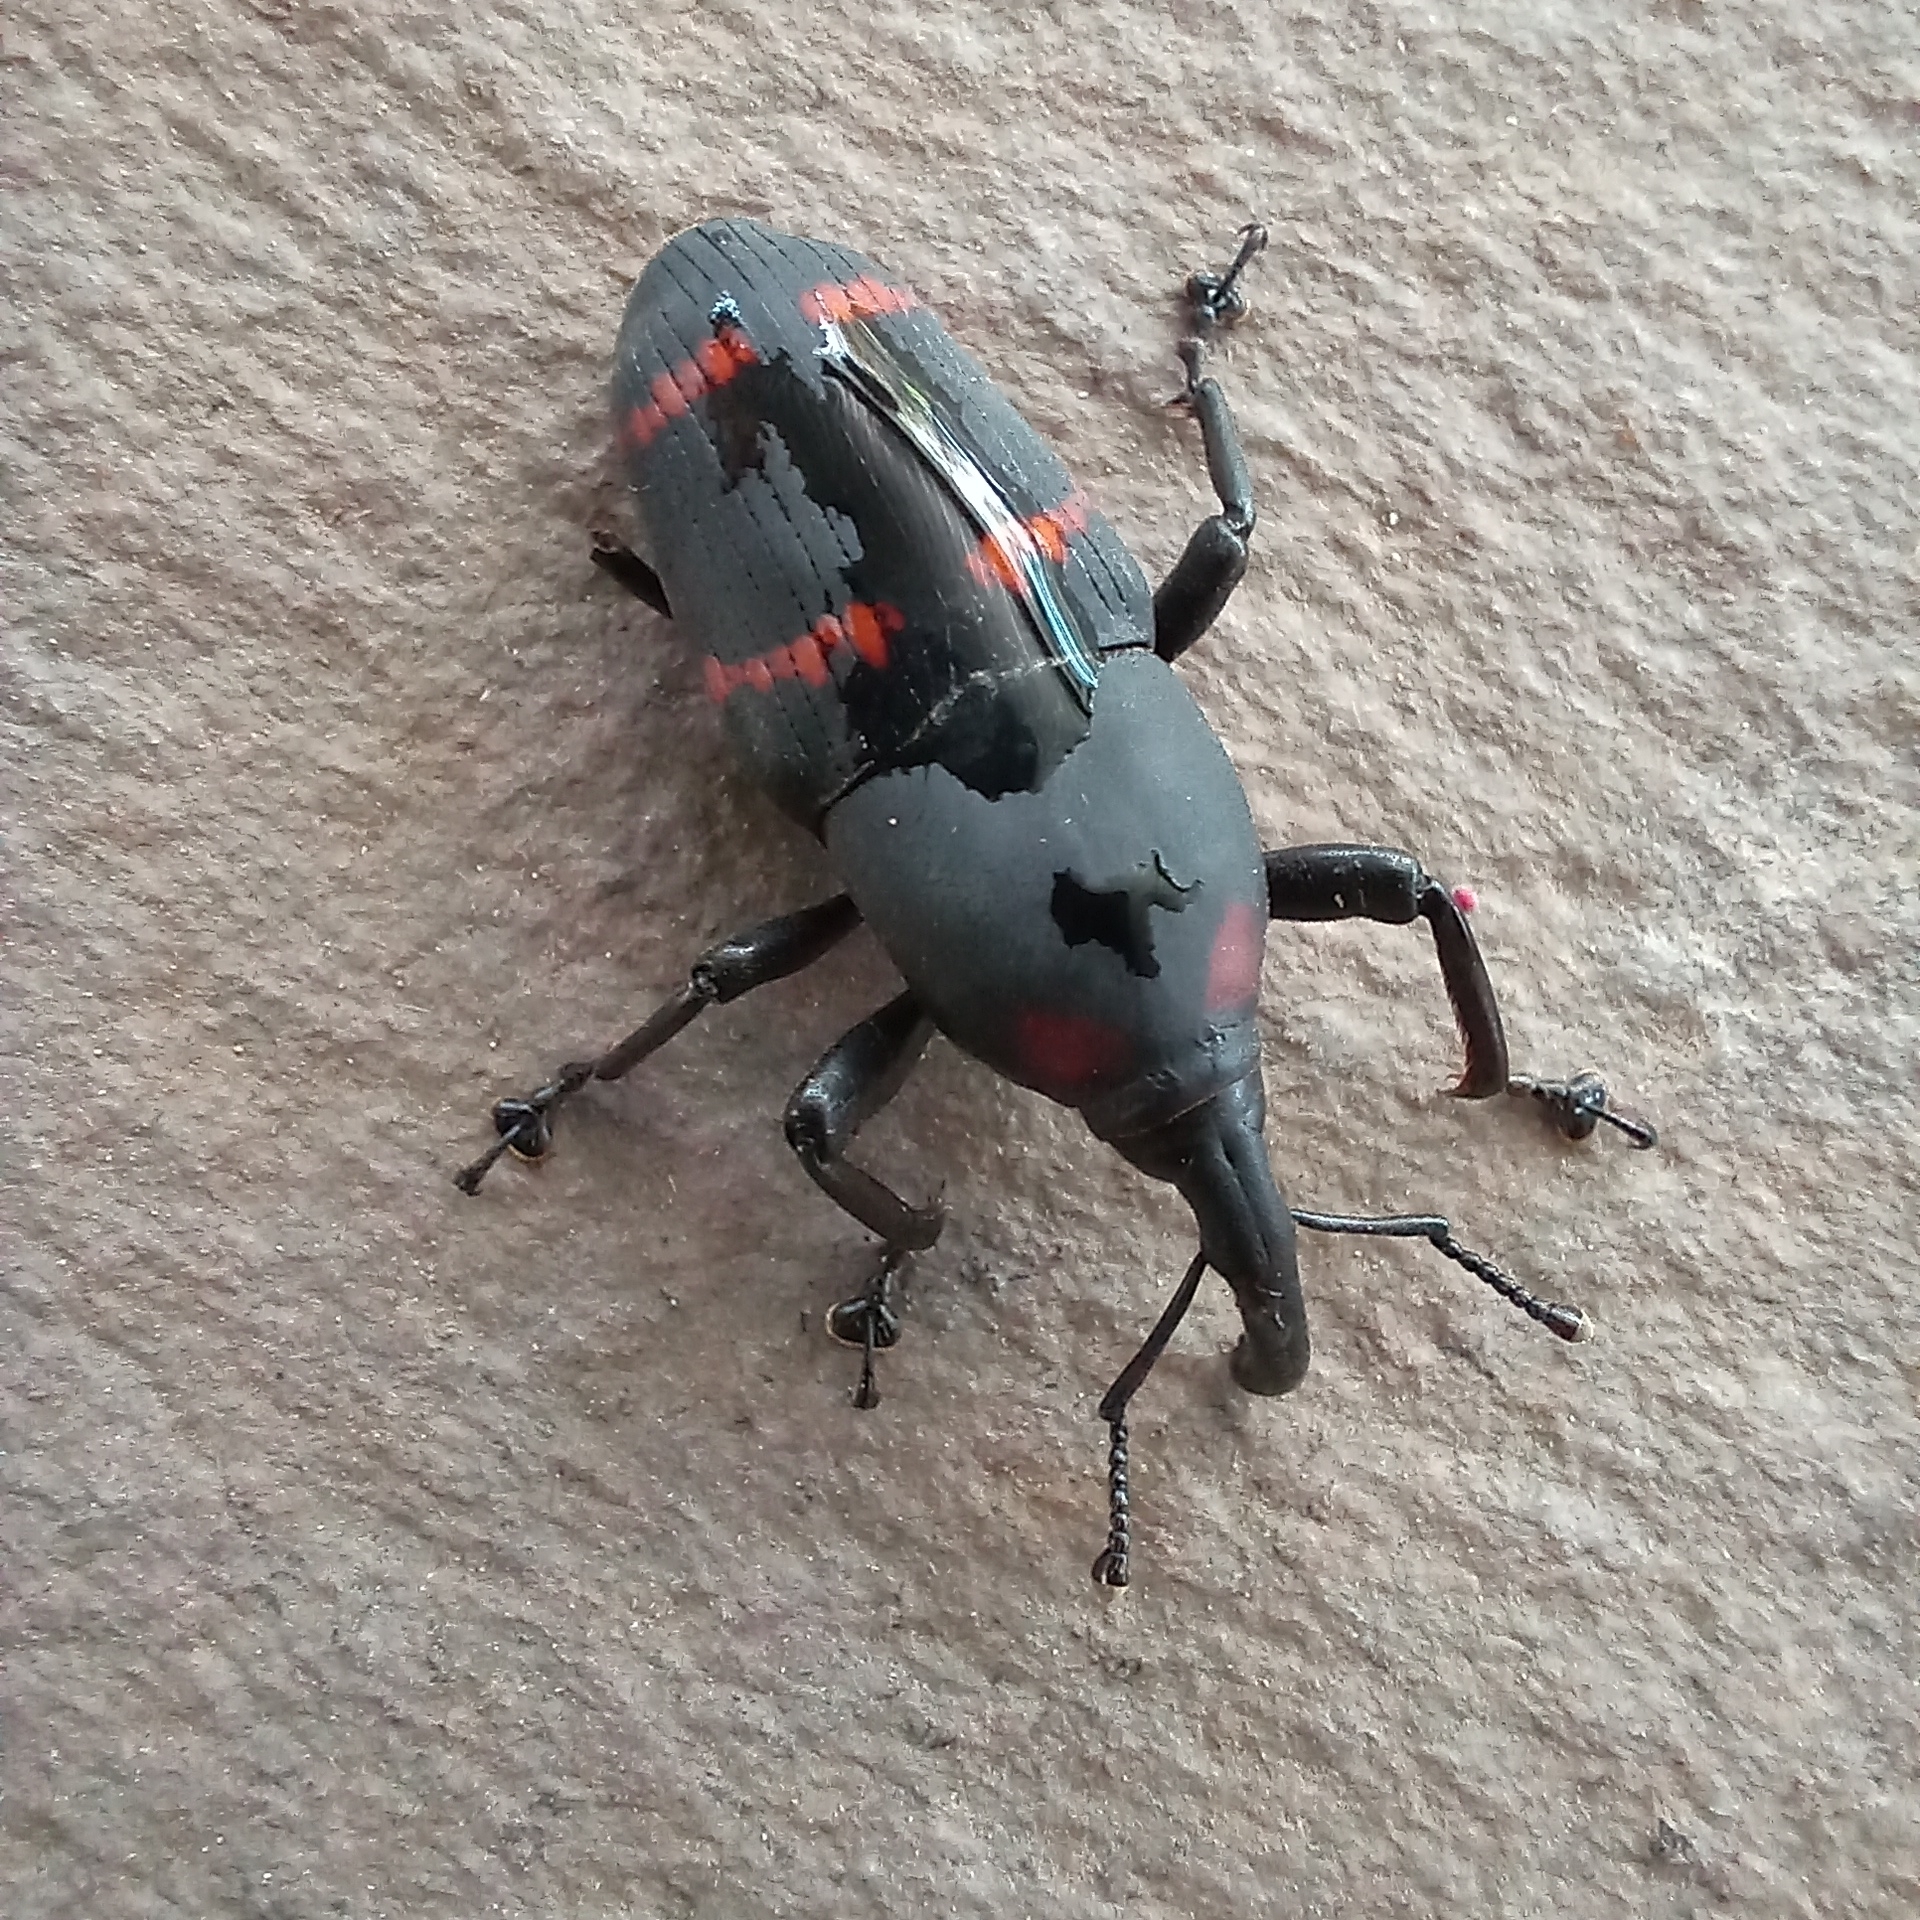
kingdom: Animalia
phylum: Arthropoda
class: Insecta
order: Coleoptera
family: Dryophthoridae
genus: Cactophagus
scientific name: Cactophagus spinolae
